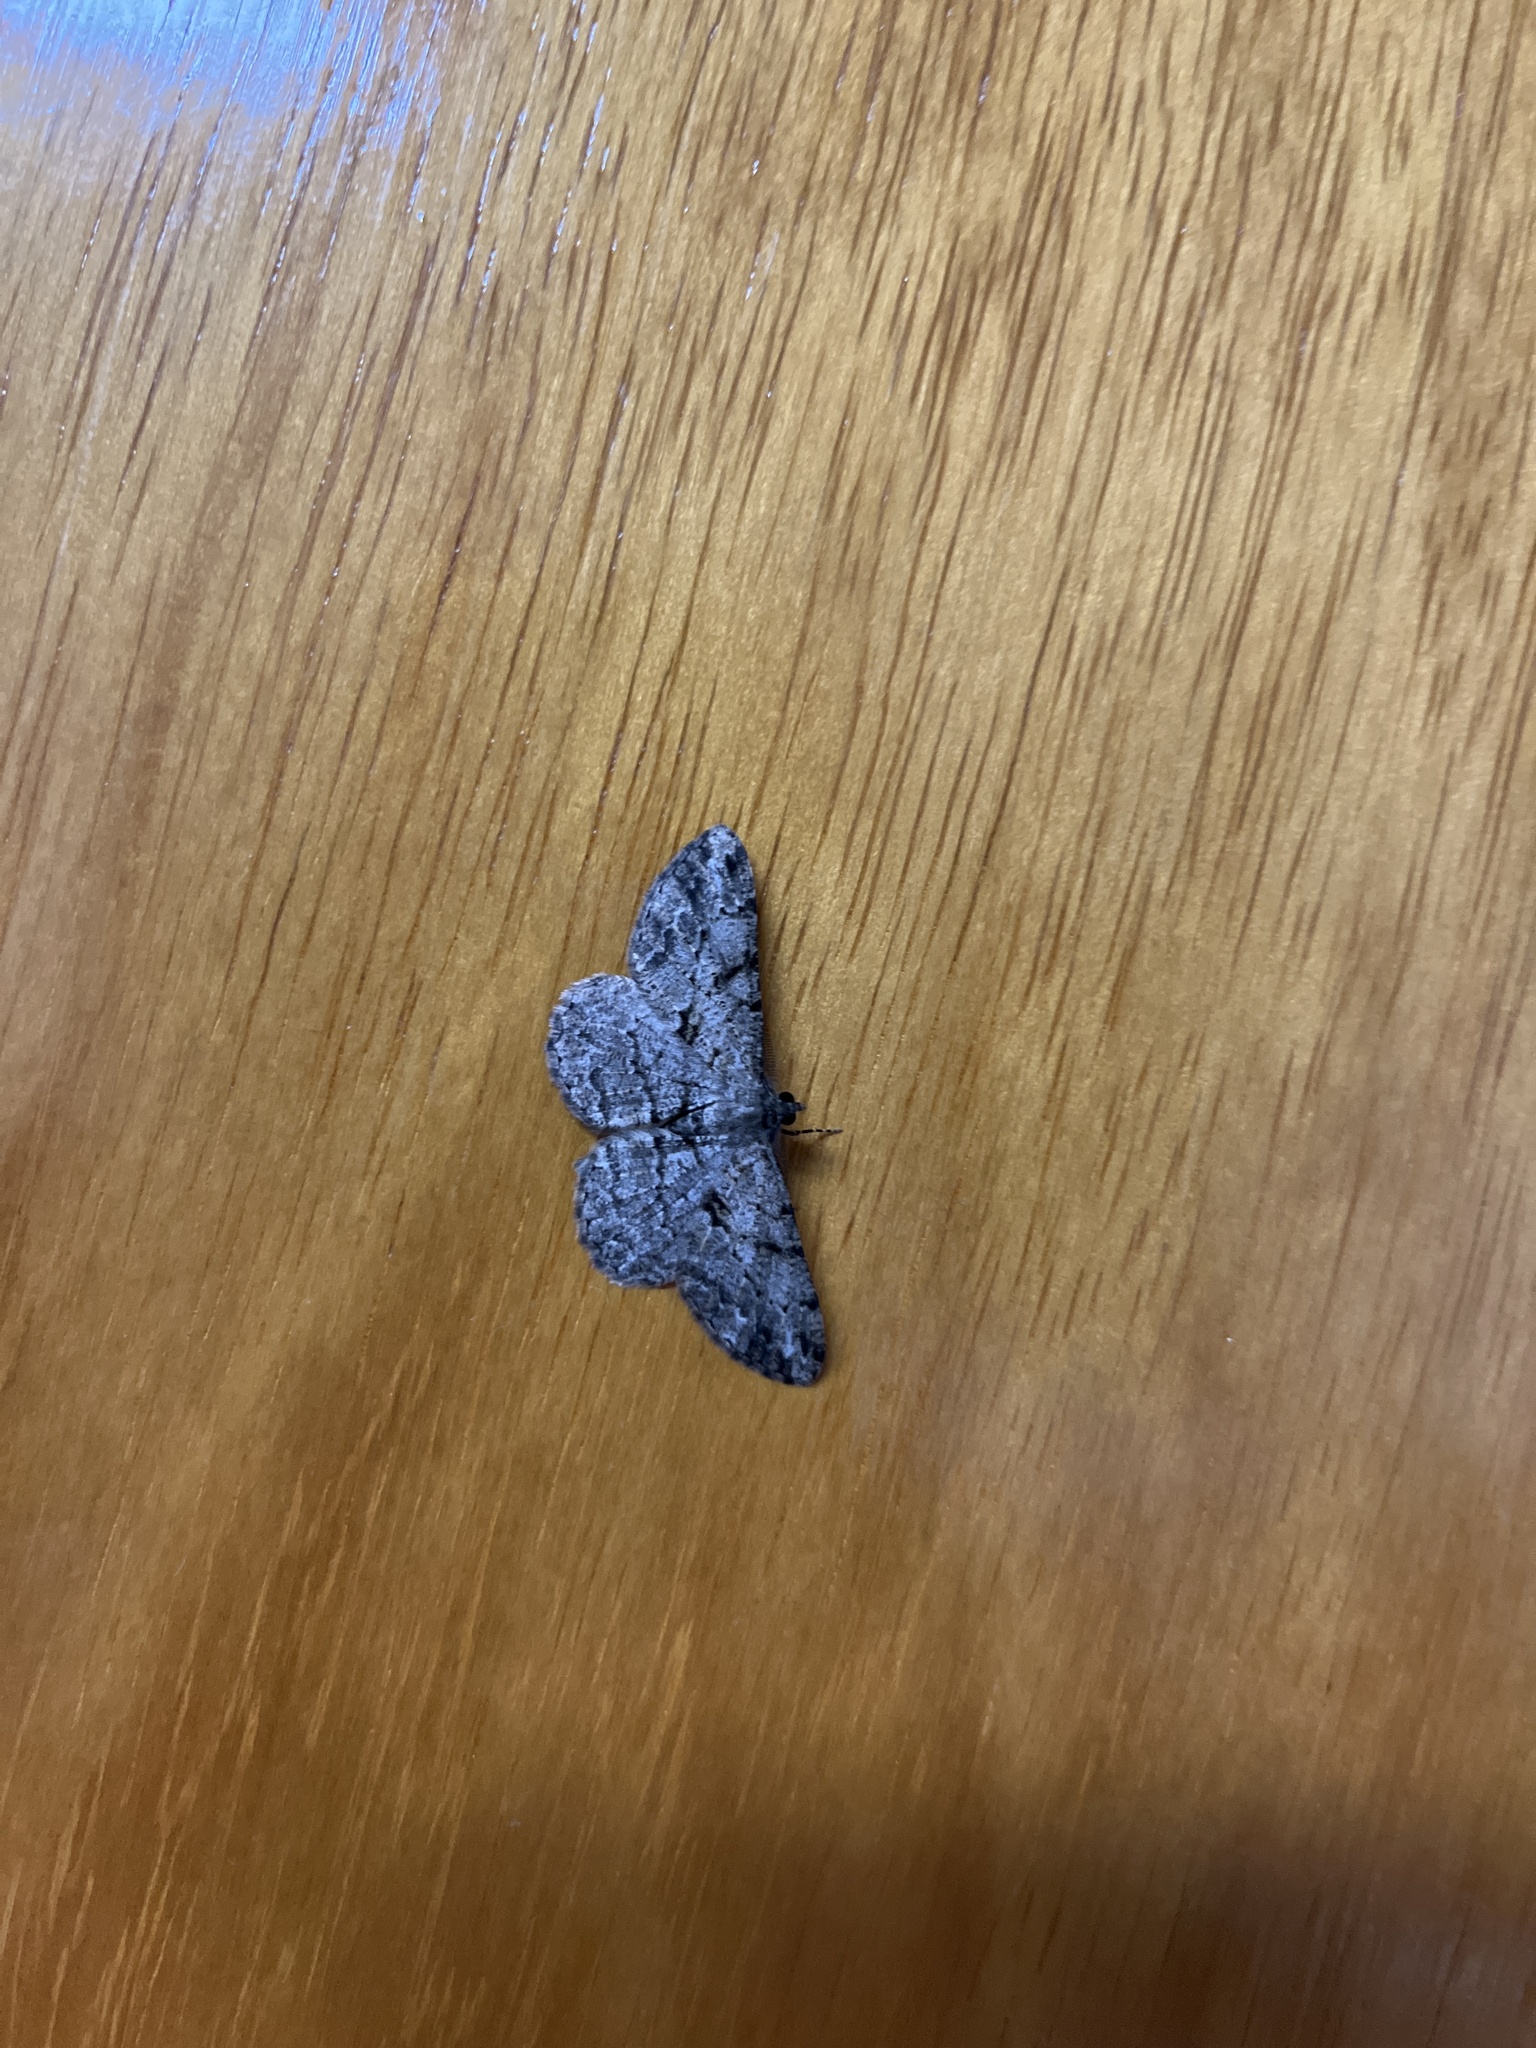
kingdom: Animalia
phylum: Arthropoda
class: Insecta
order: Lepidoptera
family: Geometridae
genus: Peribatodes
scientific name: Peribatodes rhomboidaria
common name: Willow beauty
